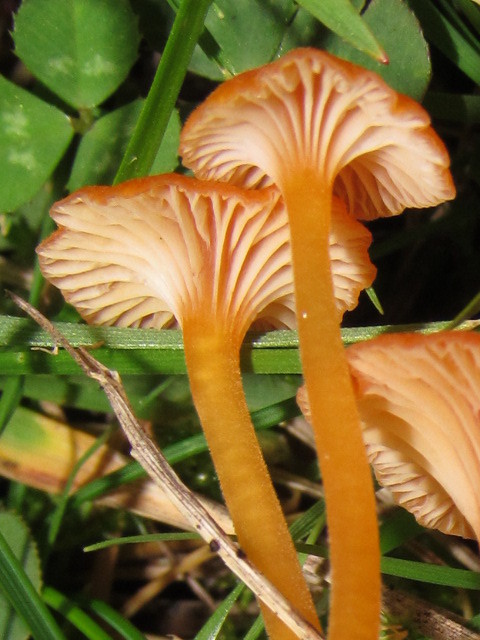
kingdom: Fungi
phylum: Basidiomycota
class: Agaricomycetes
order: Hymenochaetales
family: Rickenellaceae
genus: Rickenella
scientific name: Rickenella fibula
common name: Orange mosscap
